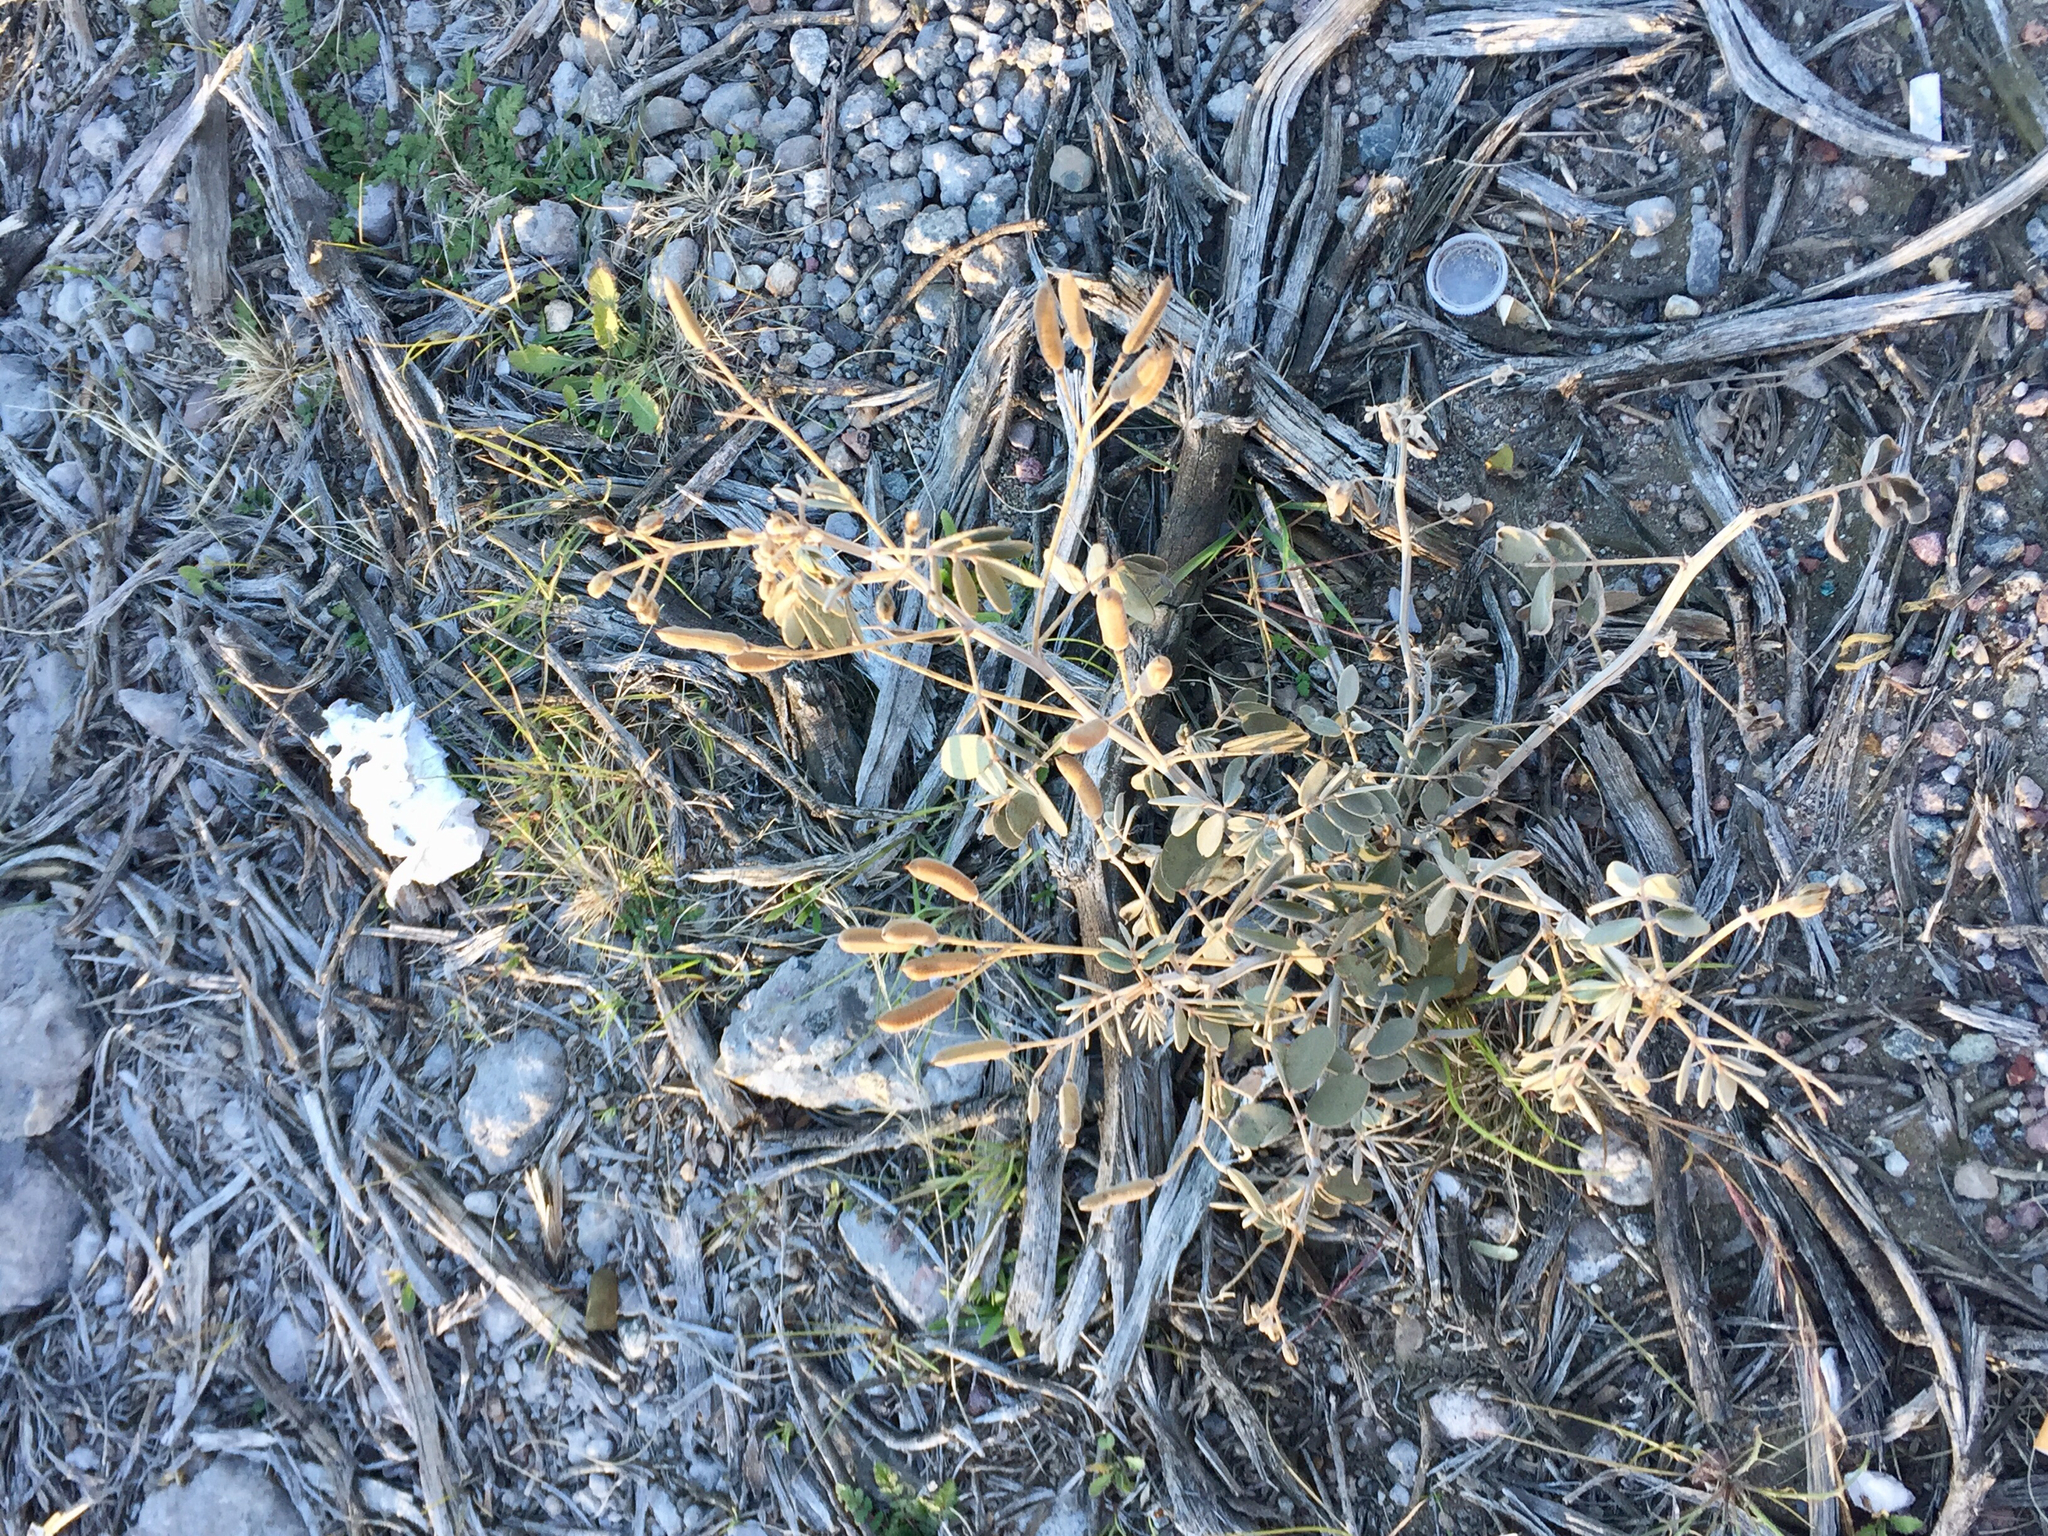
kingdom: Plantae
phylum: Tracheophyta
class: Magnoliopsida
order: Fabales
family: Fabaceae
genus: Senna
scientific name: Senna covesii
